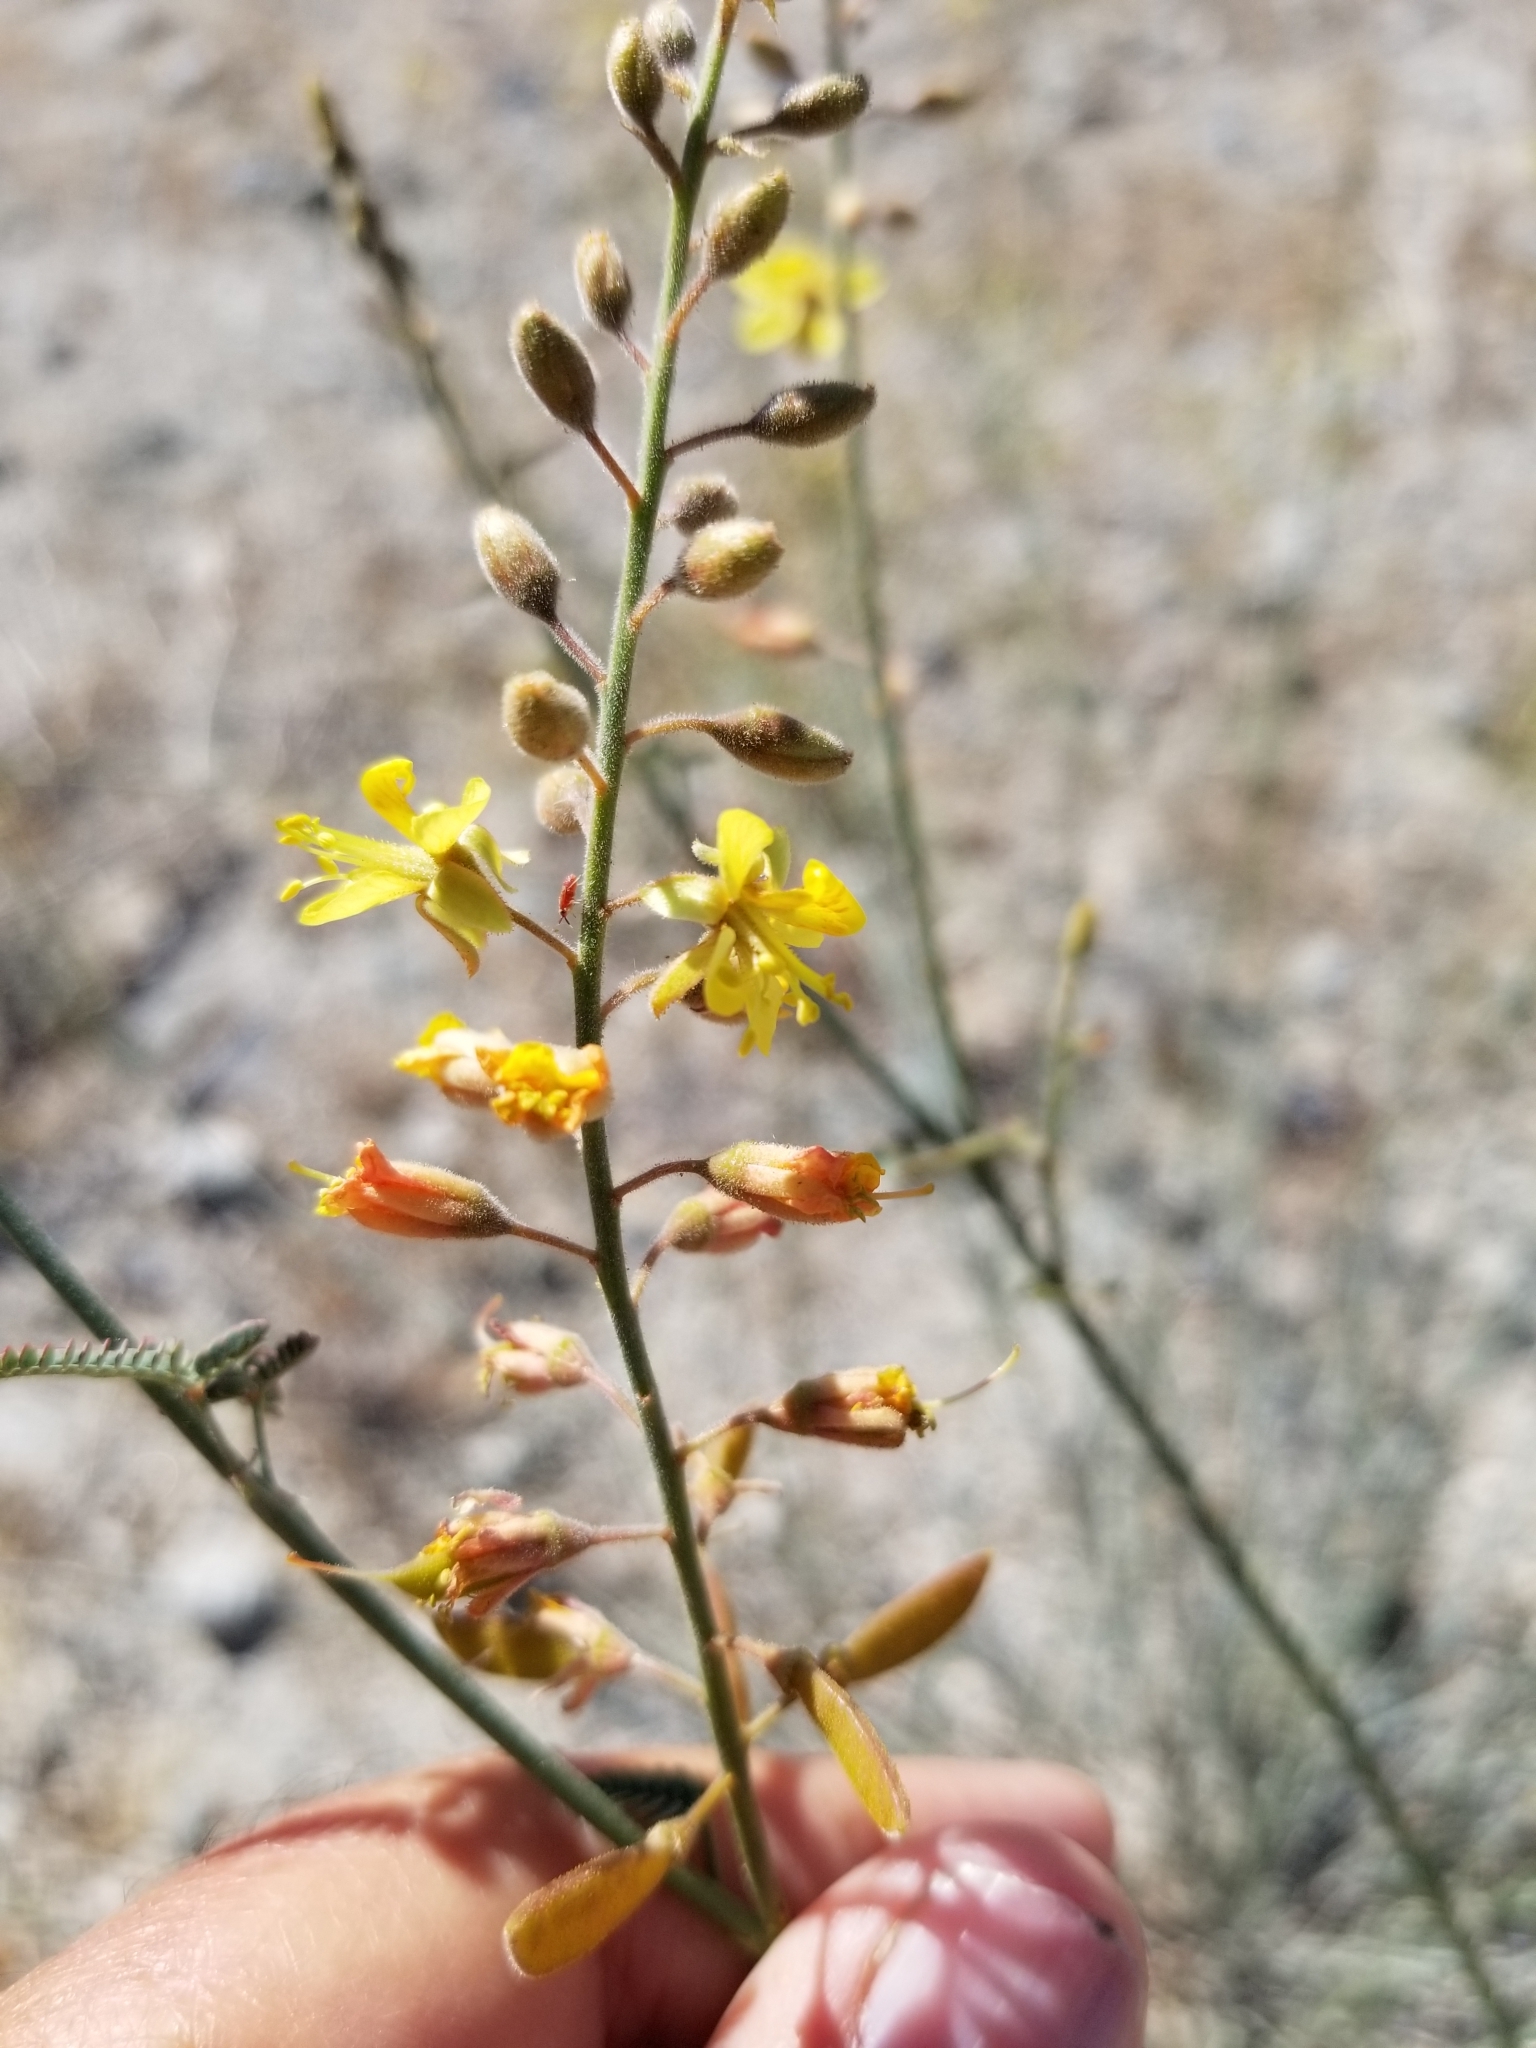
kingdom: Plantae
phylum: Tracheophyta
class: Magnoliopsida
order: Fabales
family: Fabaceae
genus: Hoffmannseggia
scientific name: Hoffmannseggia microphylla
